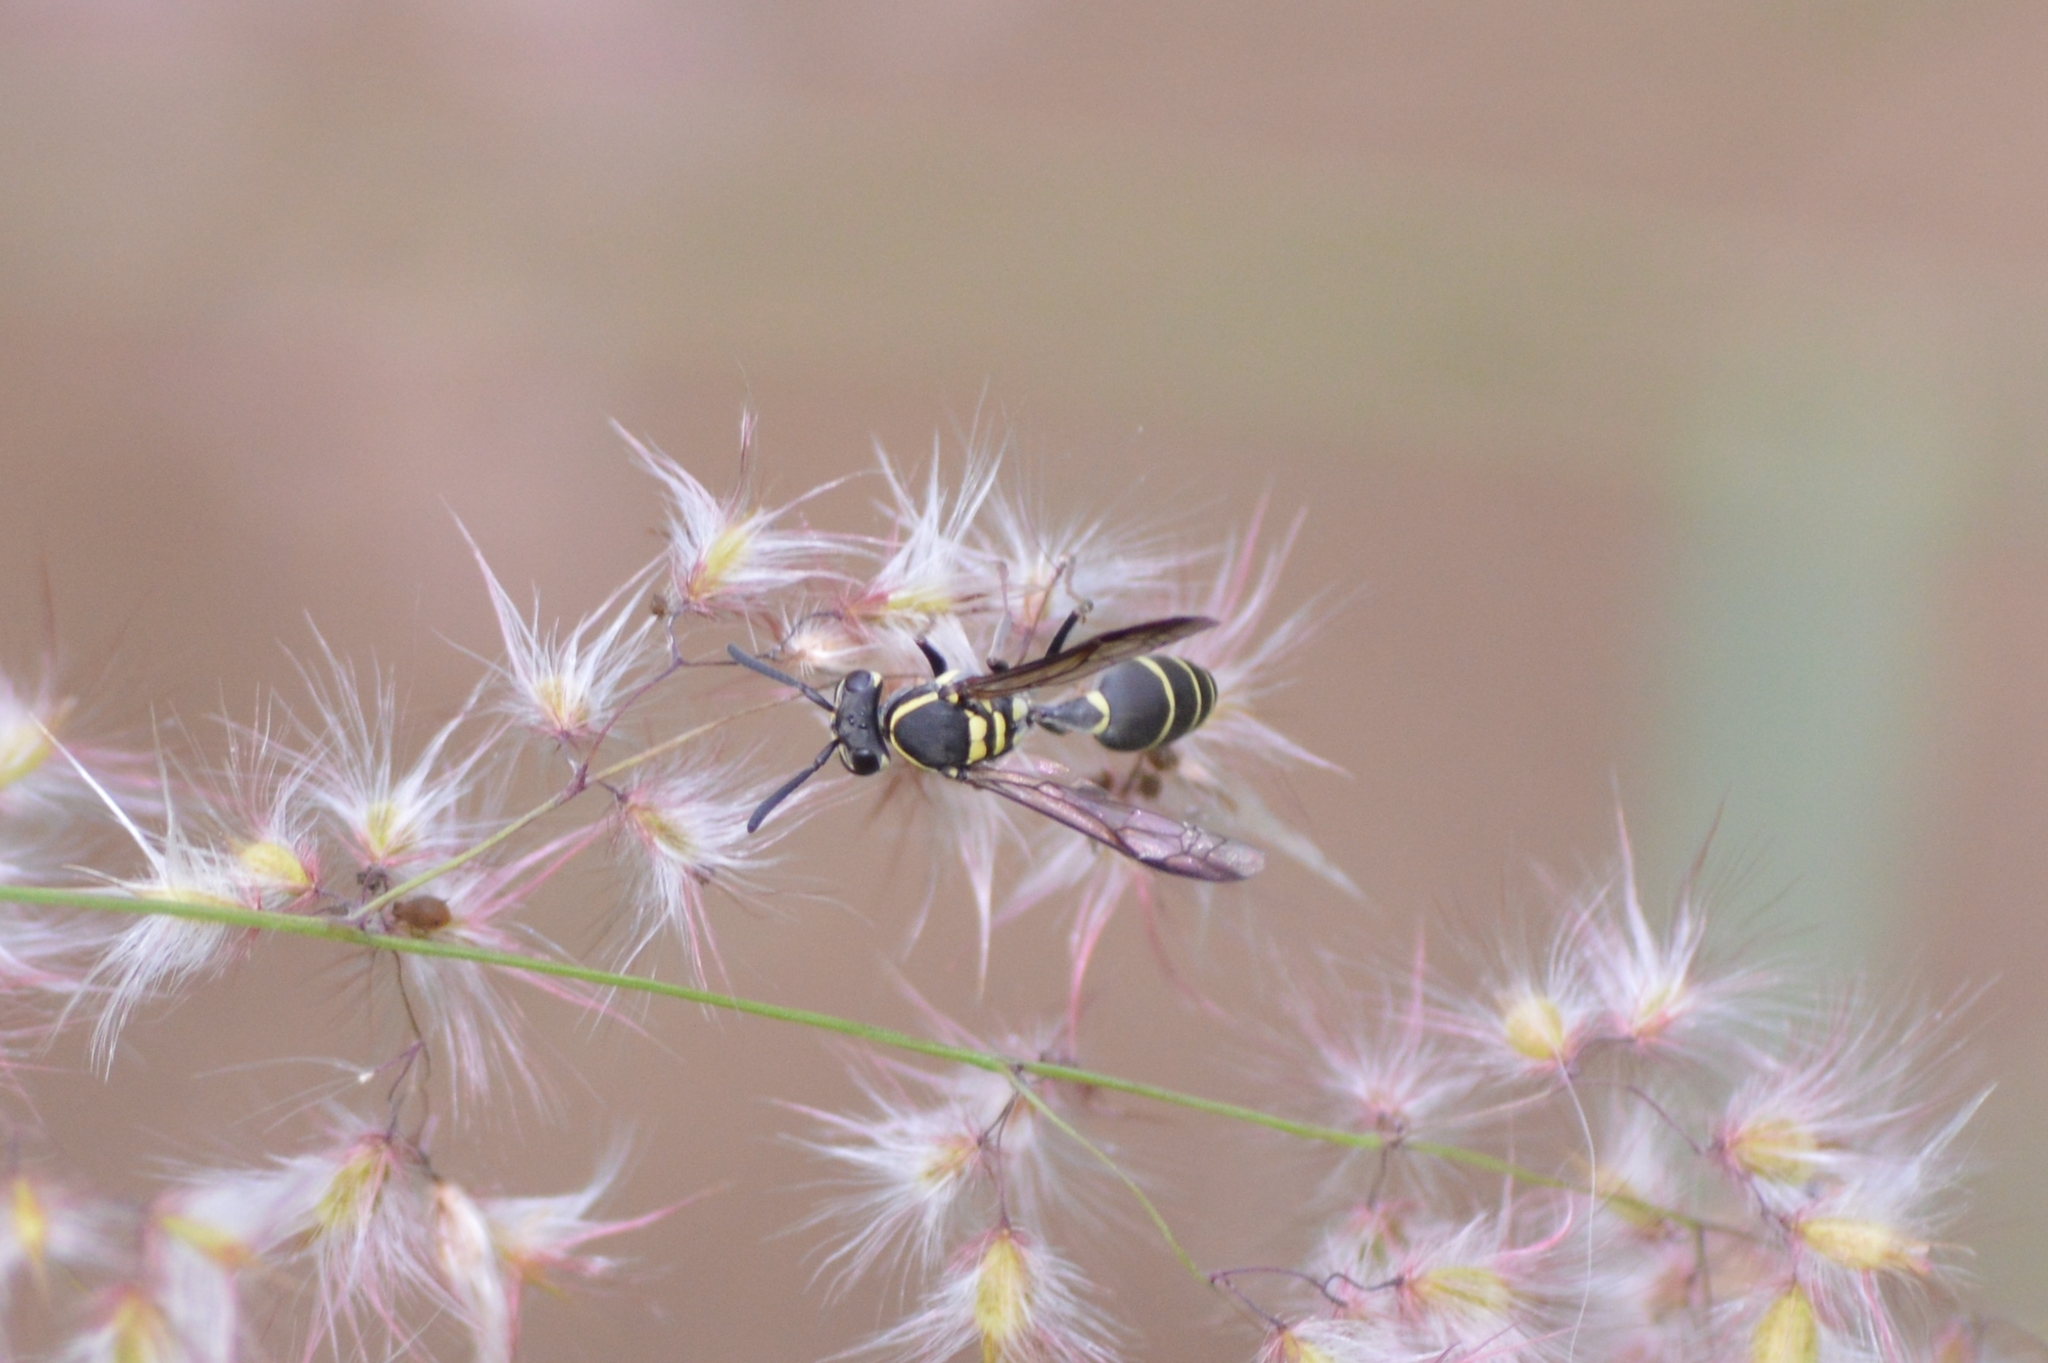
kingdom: Animalia
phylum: Arthropoda
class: Insecta
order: Hymenoptera
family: Eumenidae
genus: Polybia
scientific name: Polybia occidentalis
